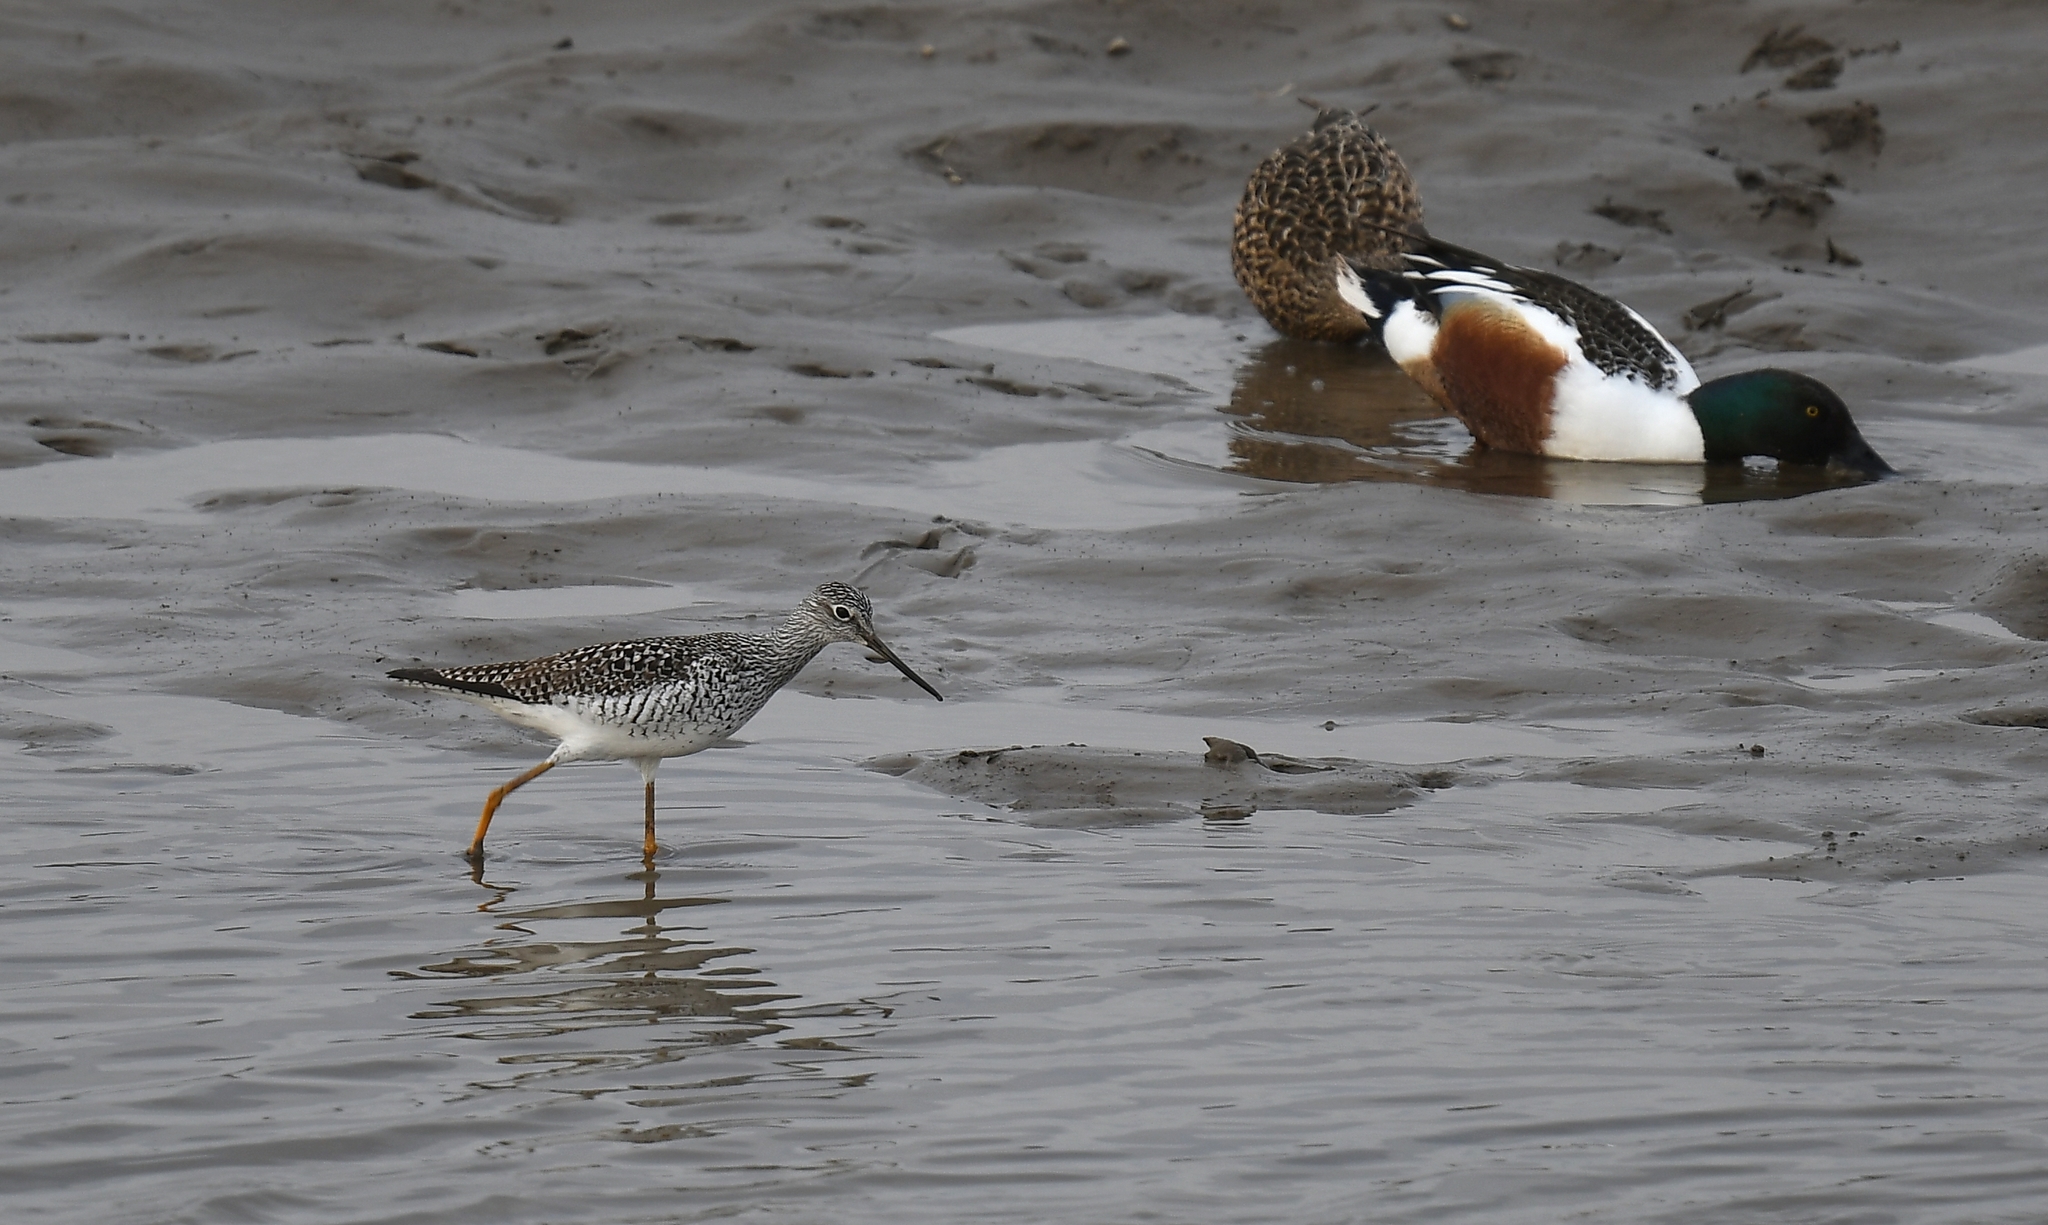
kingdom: Animalia
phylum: Chordata
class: Aves
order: Charadriiformes
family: Scolopacidae
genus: Tringa
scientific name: Tringa melanoleuca
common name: Greater yellowlegs
